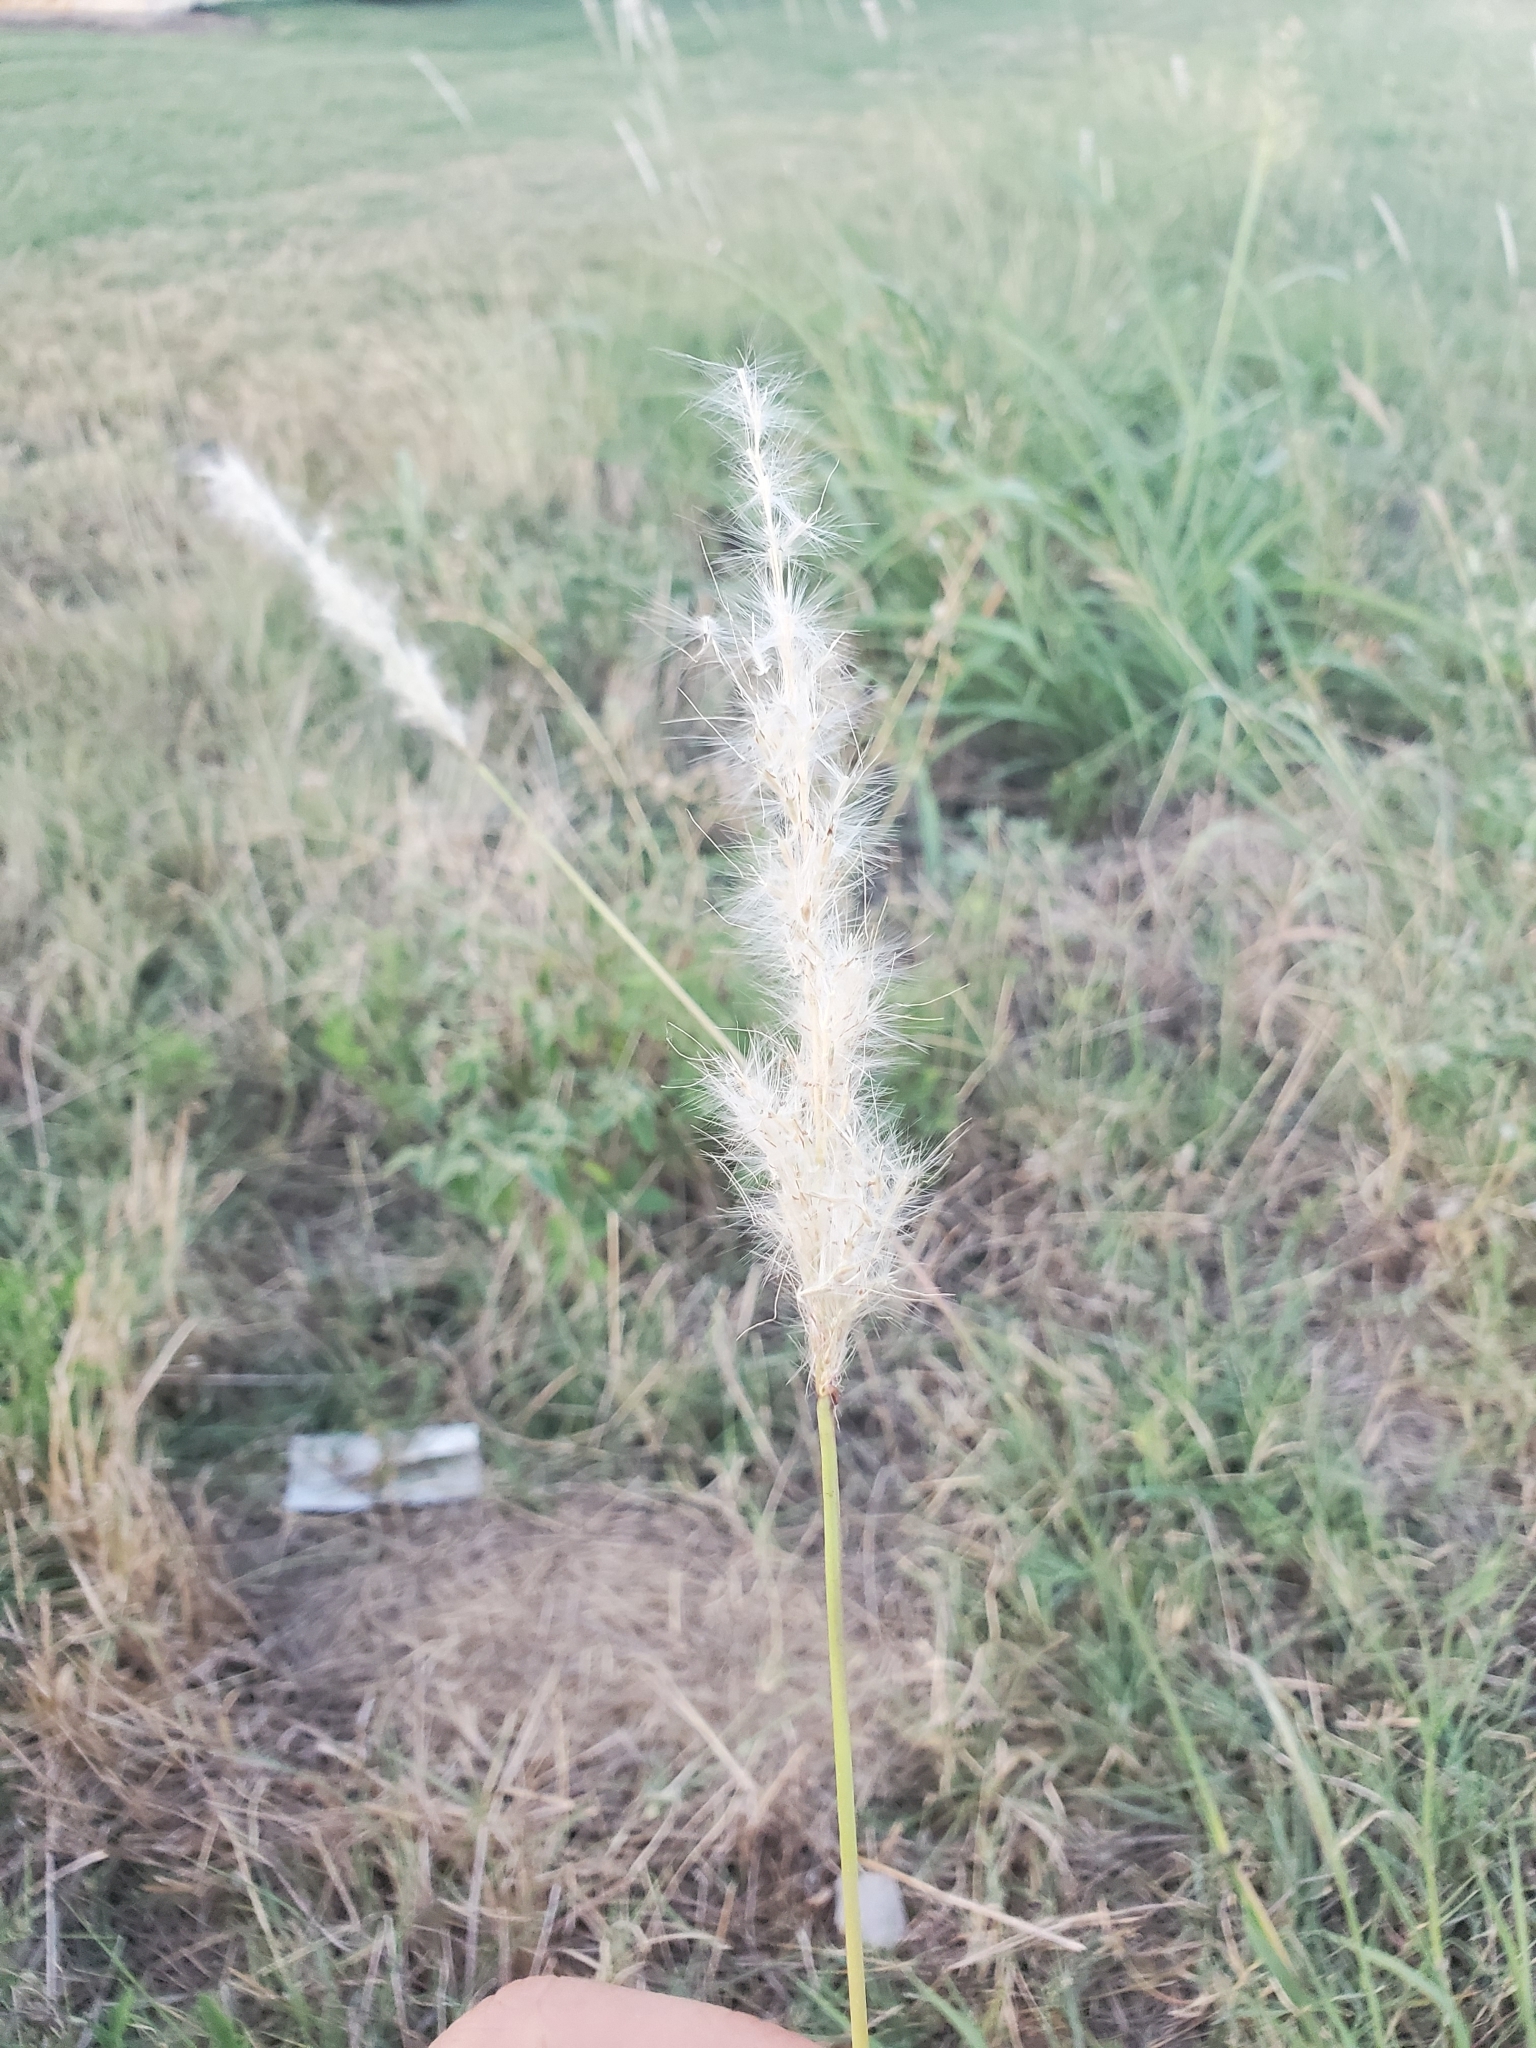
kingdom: Plantae
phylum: Tracheophyta
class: Liliopsida
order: Poales
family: Poaceae
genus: Bothriochloa
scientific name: Bothriochloa torreyana
